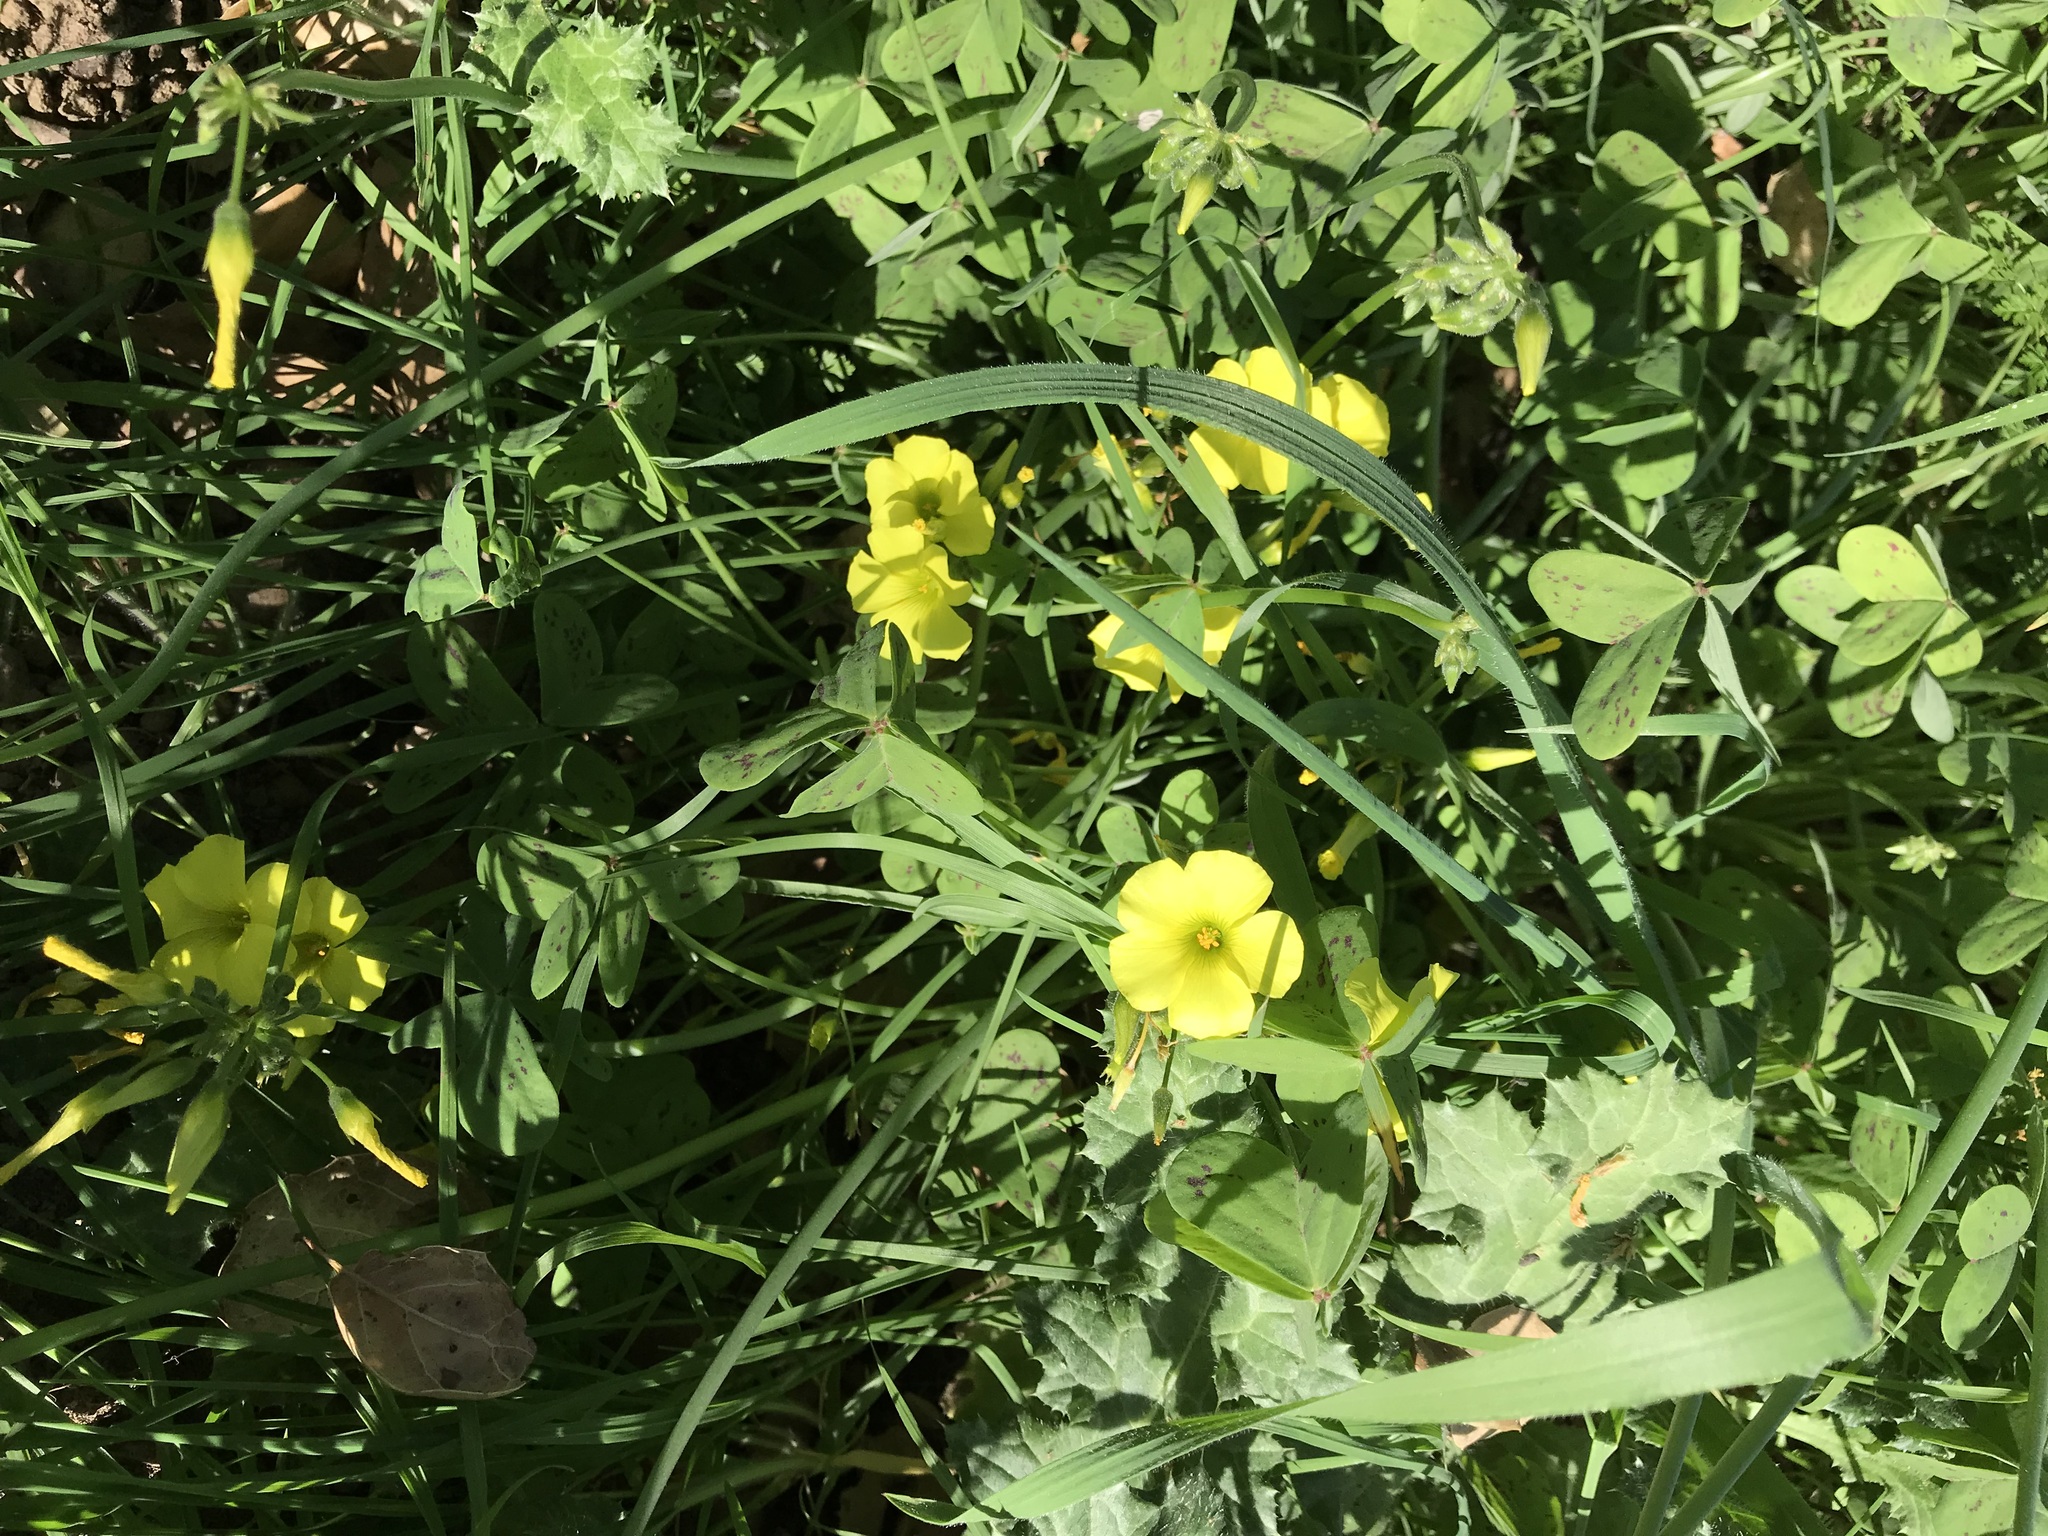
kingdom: Plantae
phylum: Tracheophyta
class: Magnoliopsida
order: Oxalidales
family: Oxalidaceae
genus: Oxalis
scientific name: Oxalis pes-caprae
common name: Bermuda-buttercup
